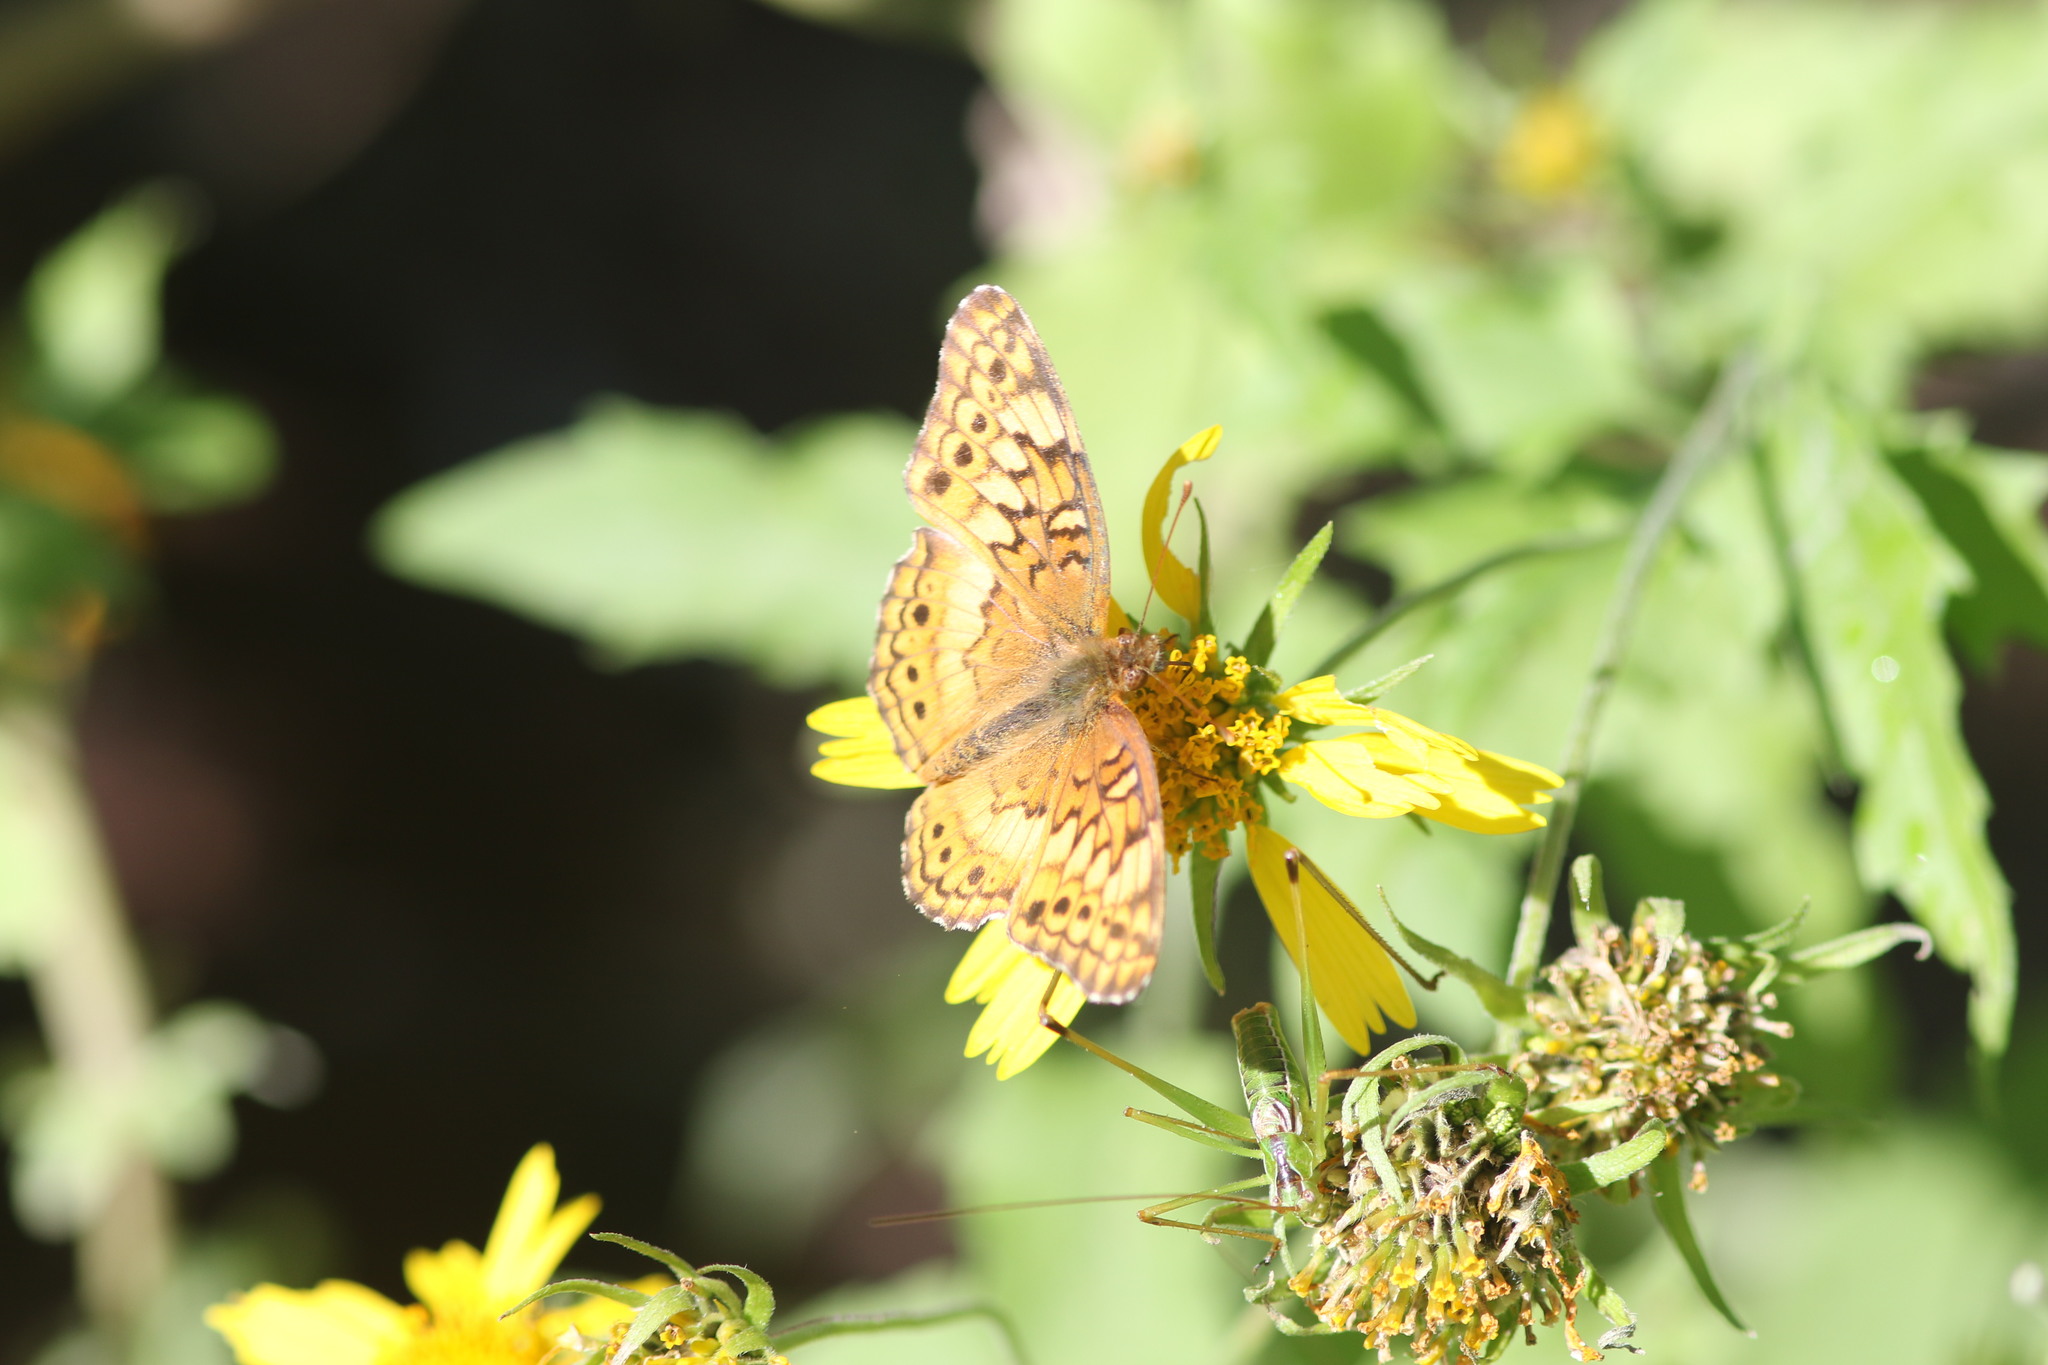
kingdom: Animalia
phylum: Arthropoda
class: Insecta
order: Lepidoptera
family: Nymphalidae
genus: Euptoieta
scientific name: Euptoieta claudia
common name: Variegated fritillary
